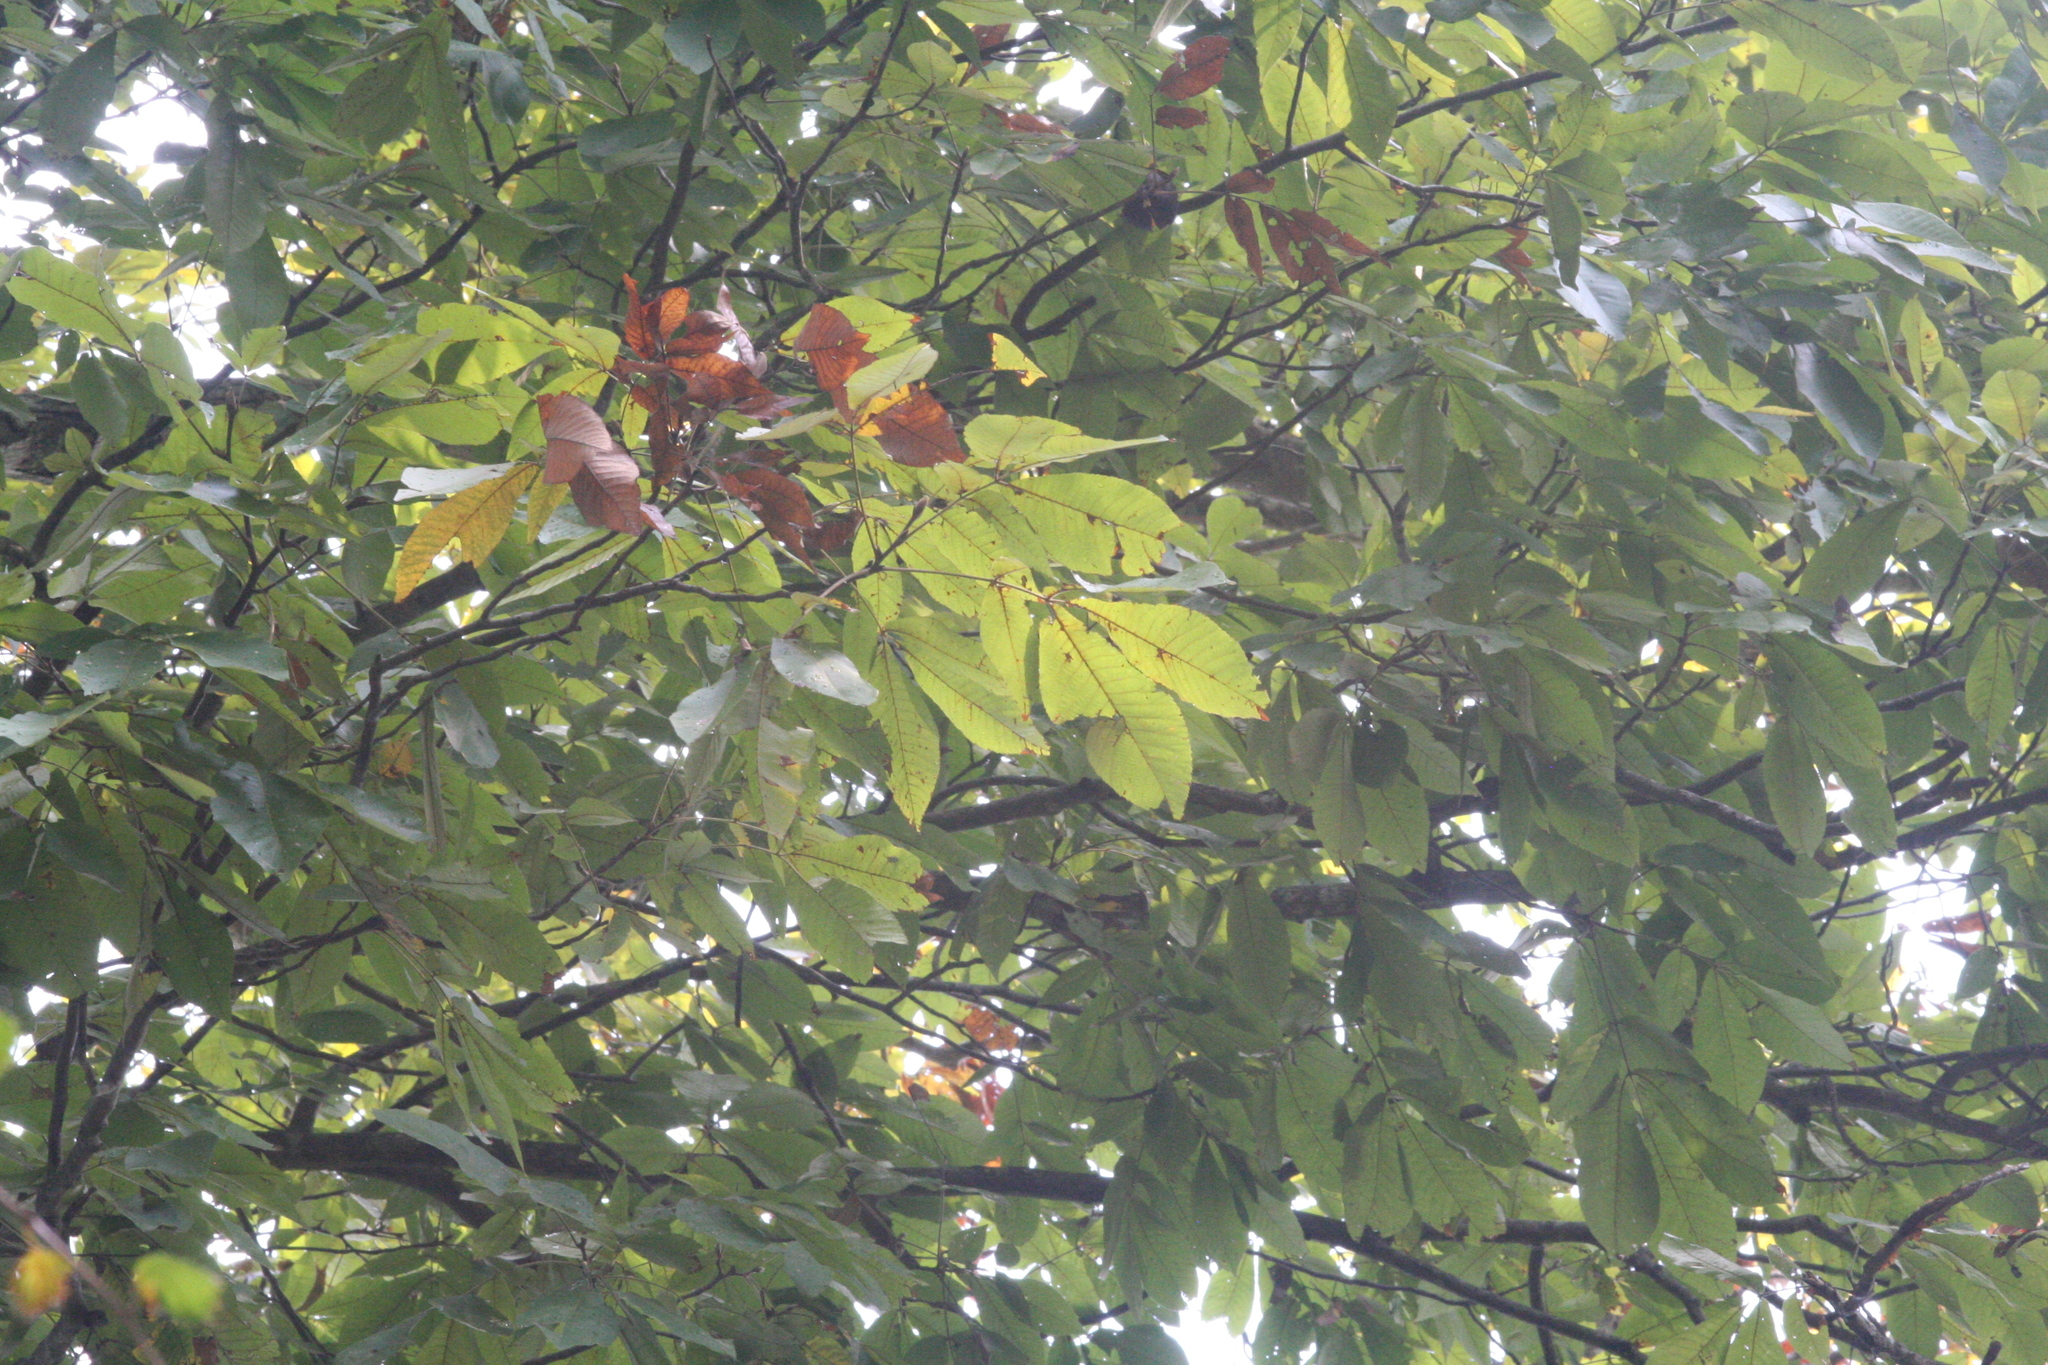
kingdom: Plantae
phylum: Tracheophyta
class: Magnoliopsida
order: Fagales
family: Juglandaceae
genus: Carya
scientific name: Carya ovata
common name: Shagbark hickory
